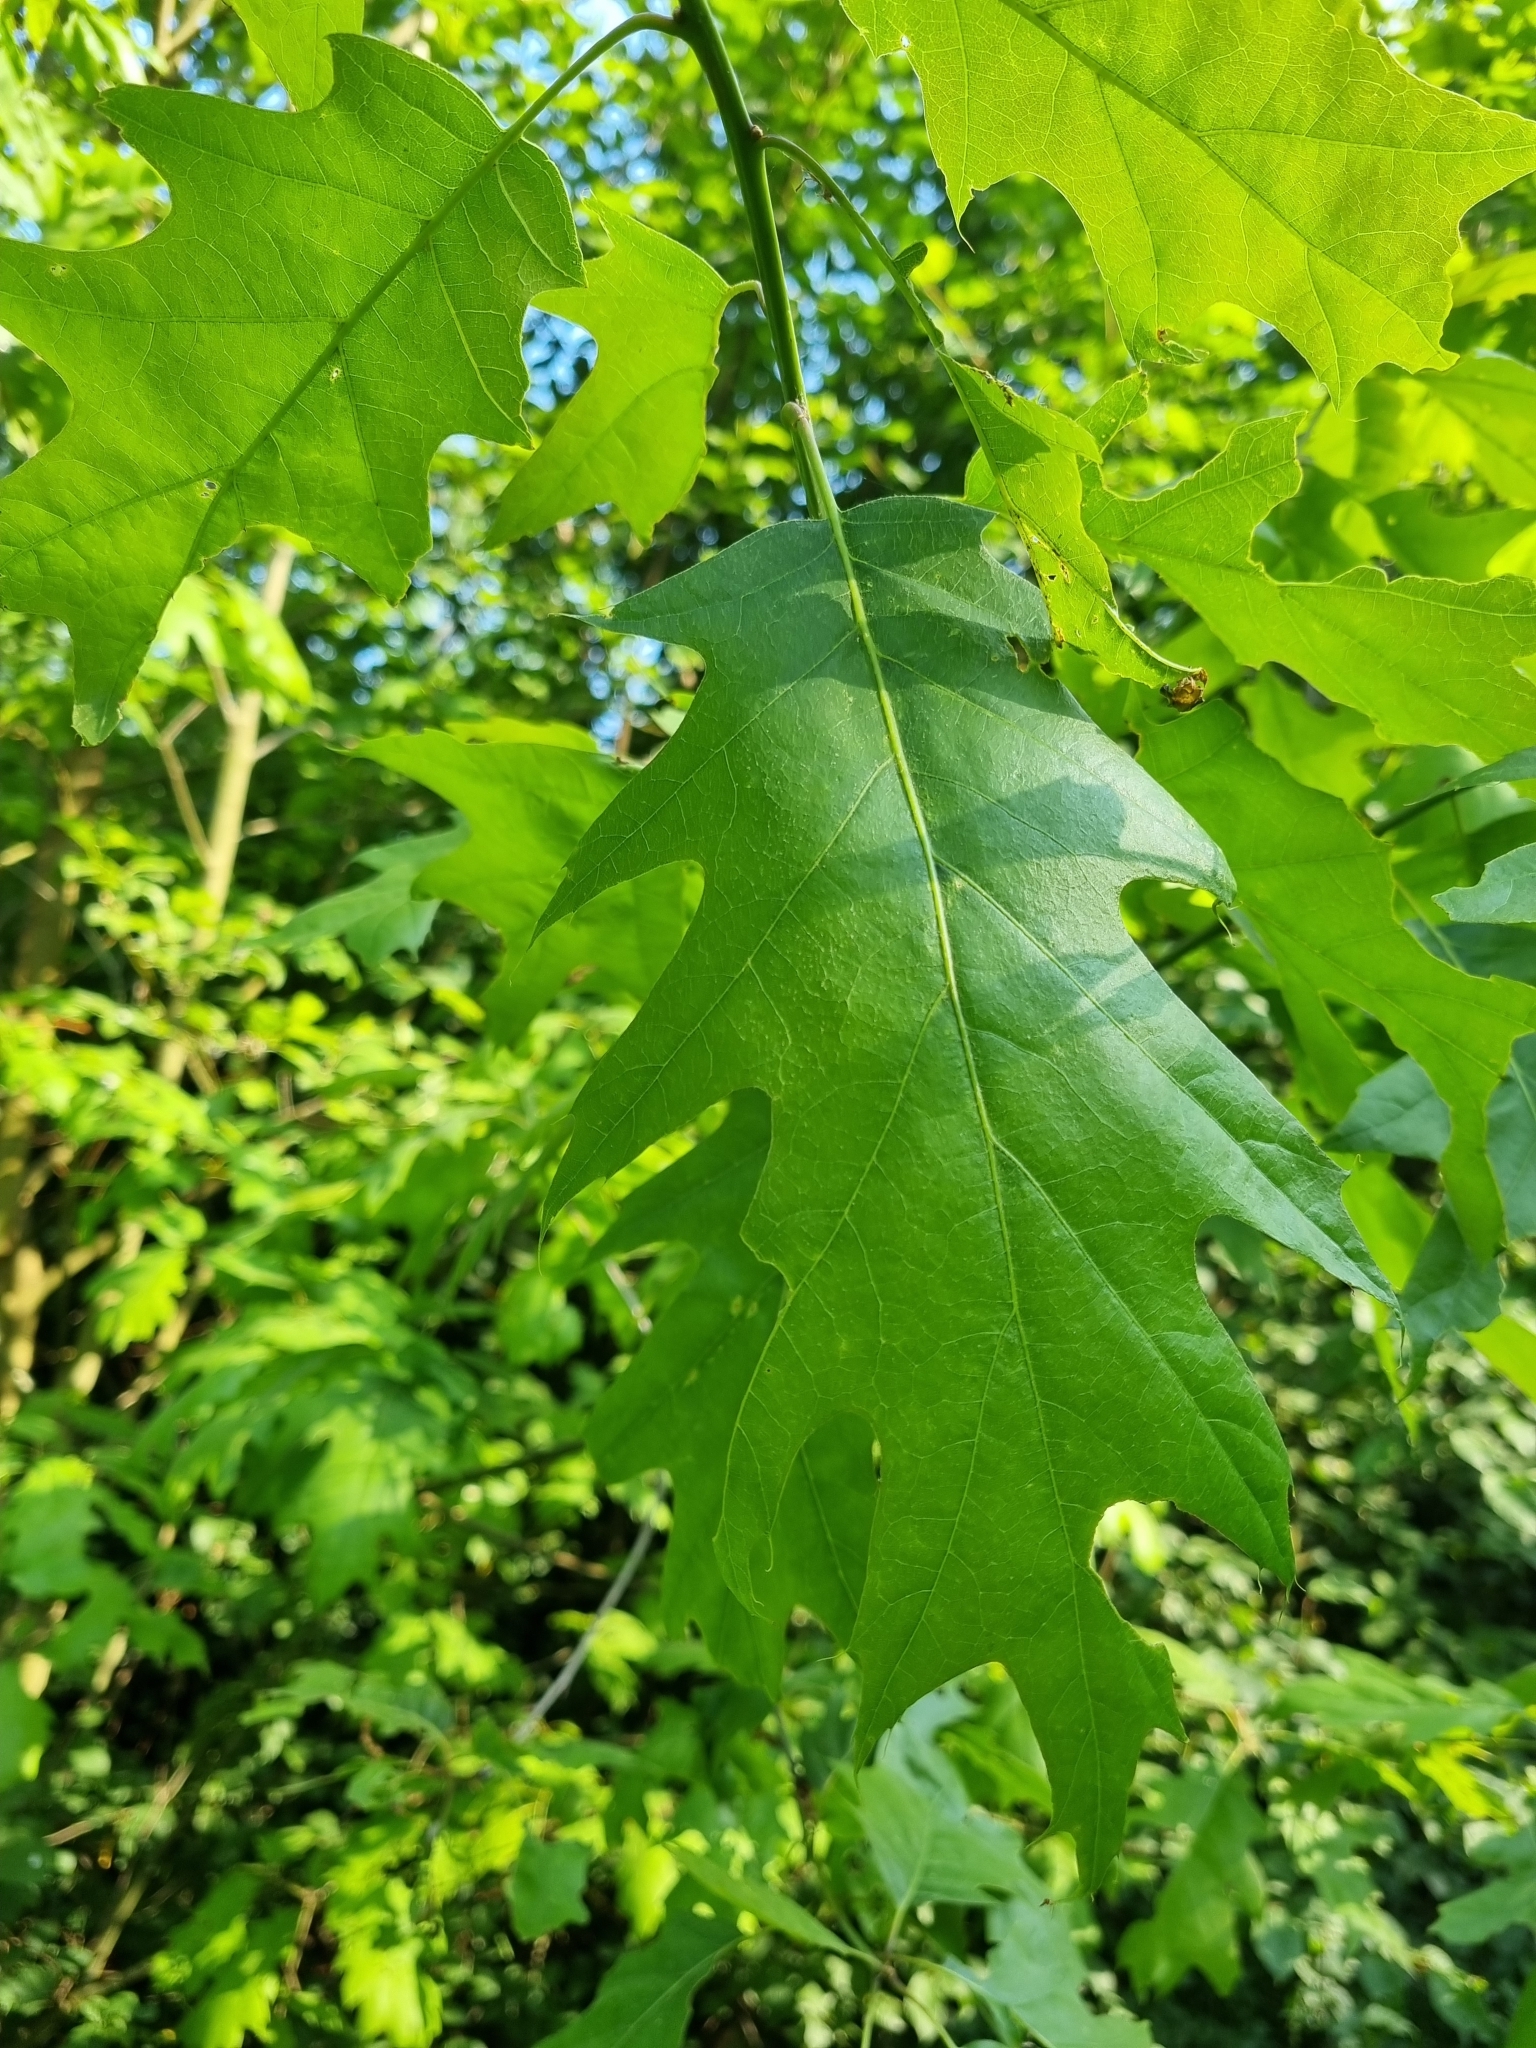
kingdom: Plantae
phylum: Tracheophyta
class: Magnoliopsida
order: Fagales
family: Fagaceae
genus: Quercus
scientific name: Quercus rubra
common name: Red oak
